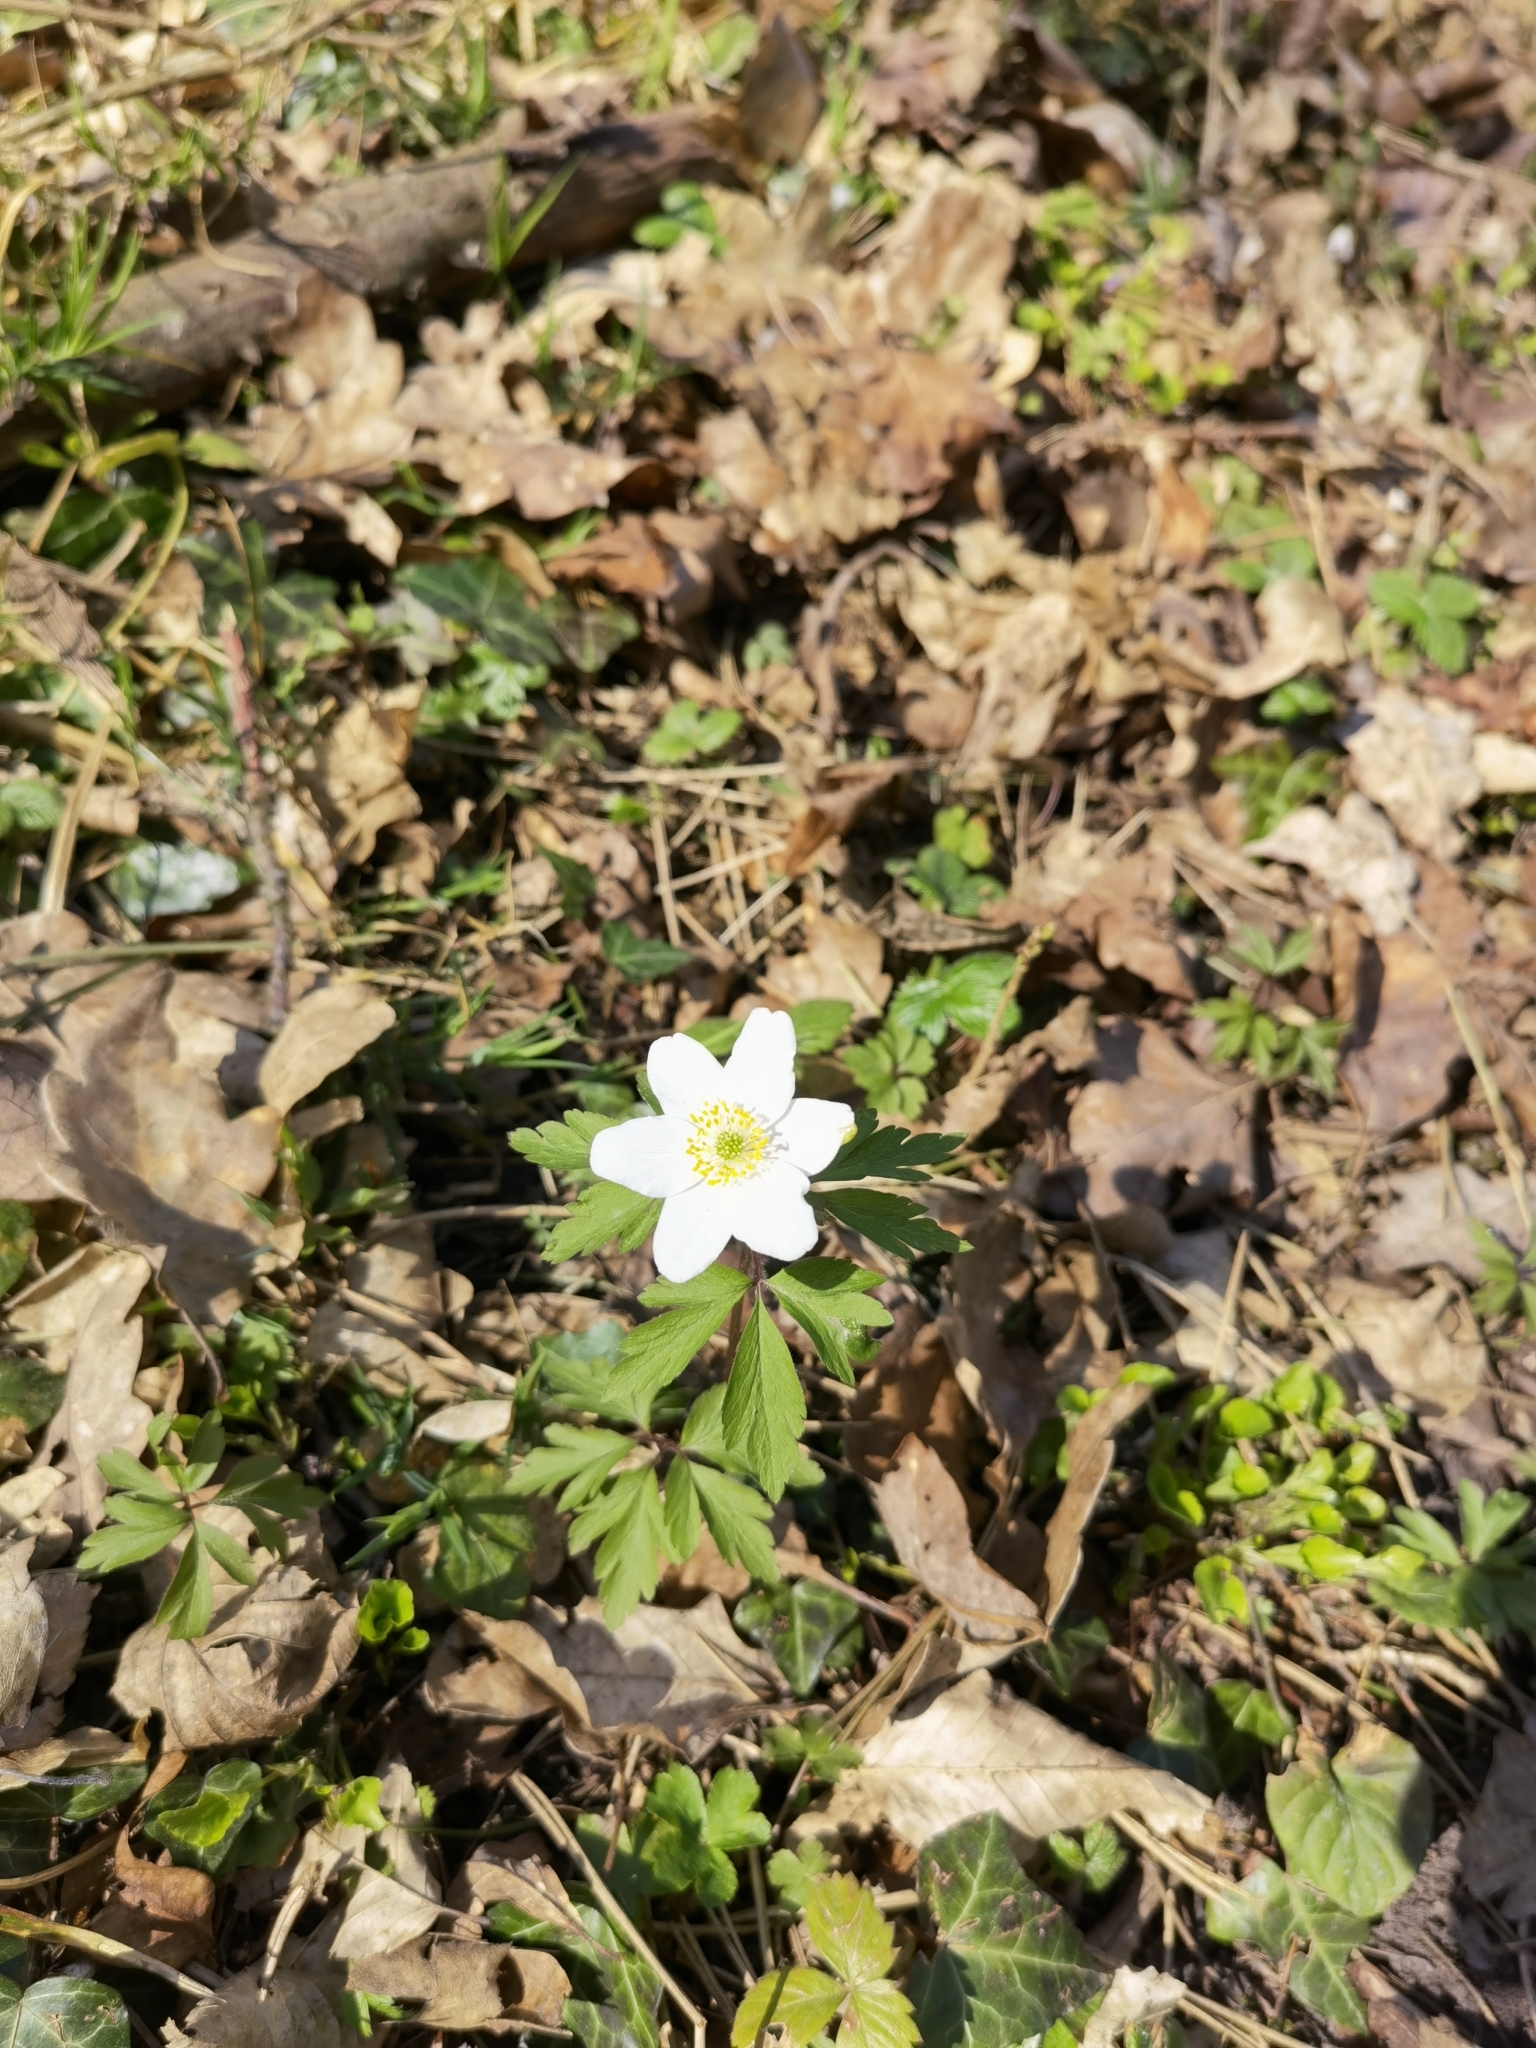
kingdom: Plantae
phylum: Tracheophyta
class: Magnoliopsida
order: Ranunculales
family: Ranunculaceae
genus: Anemone
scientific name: Anemone nemorosa
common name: Wood anemone
